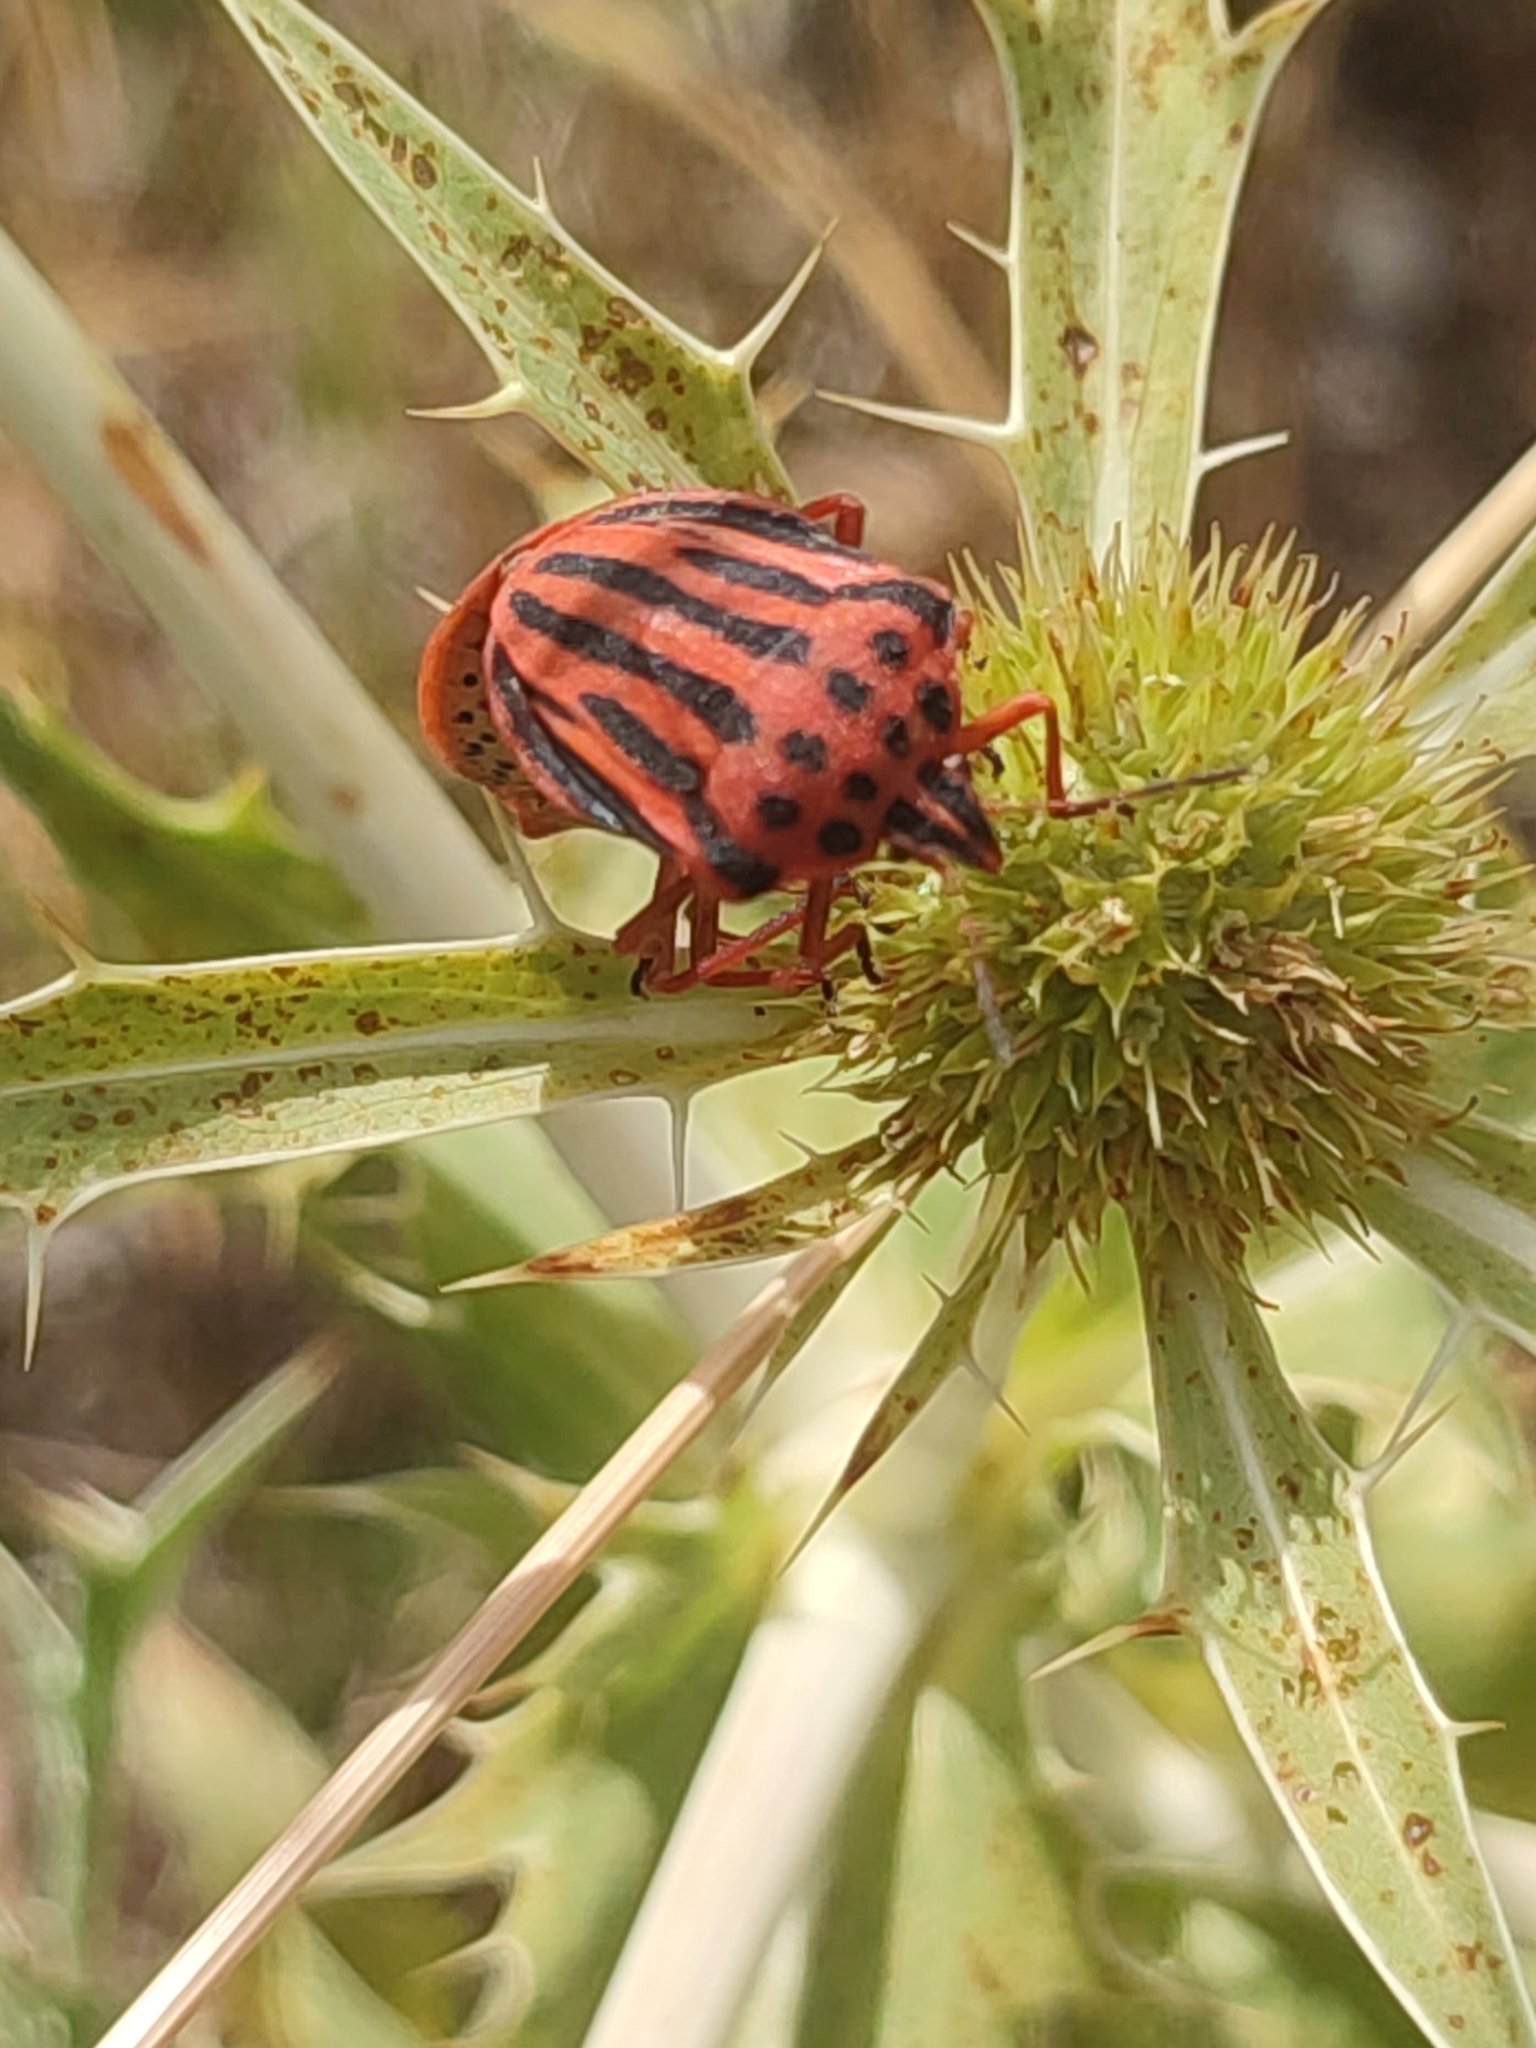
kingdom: Animalia
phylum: Arthropoda
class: Insecta
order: Hemiptera
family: Pentatomidae
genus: Graphosoma
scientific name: Graphosoma semipunctatum
